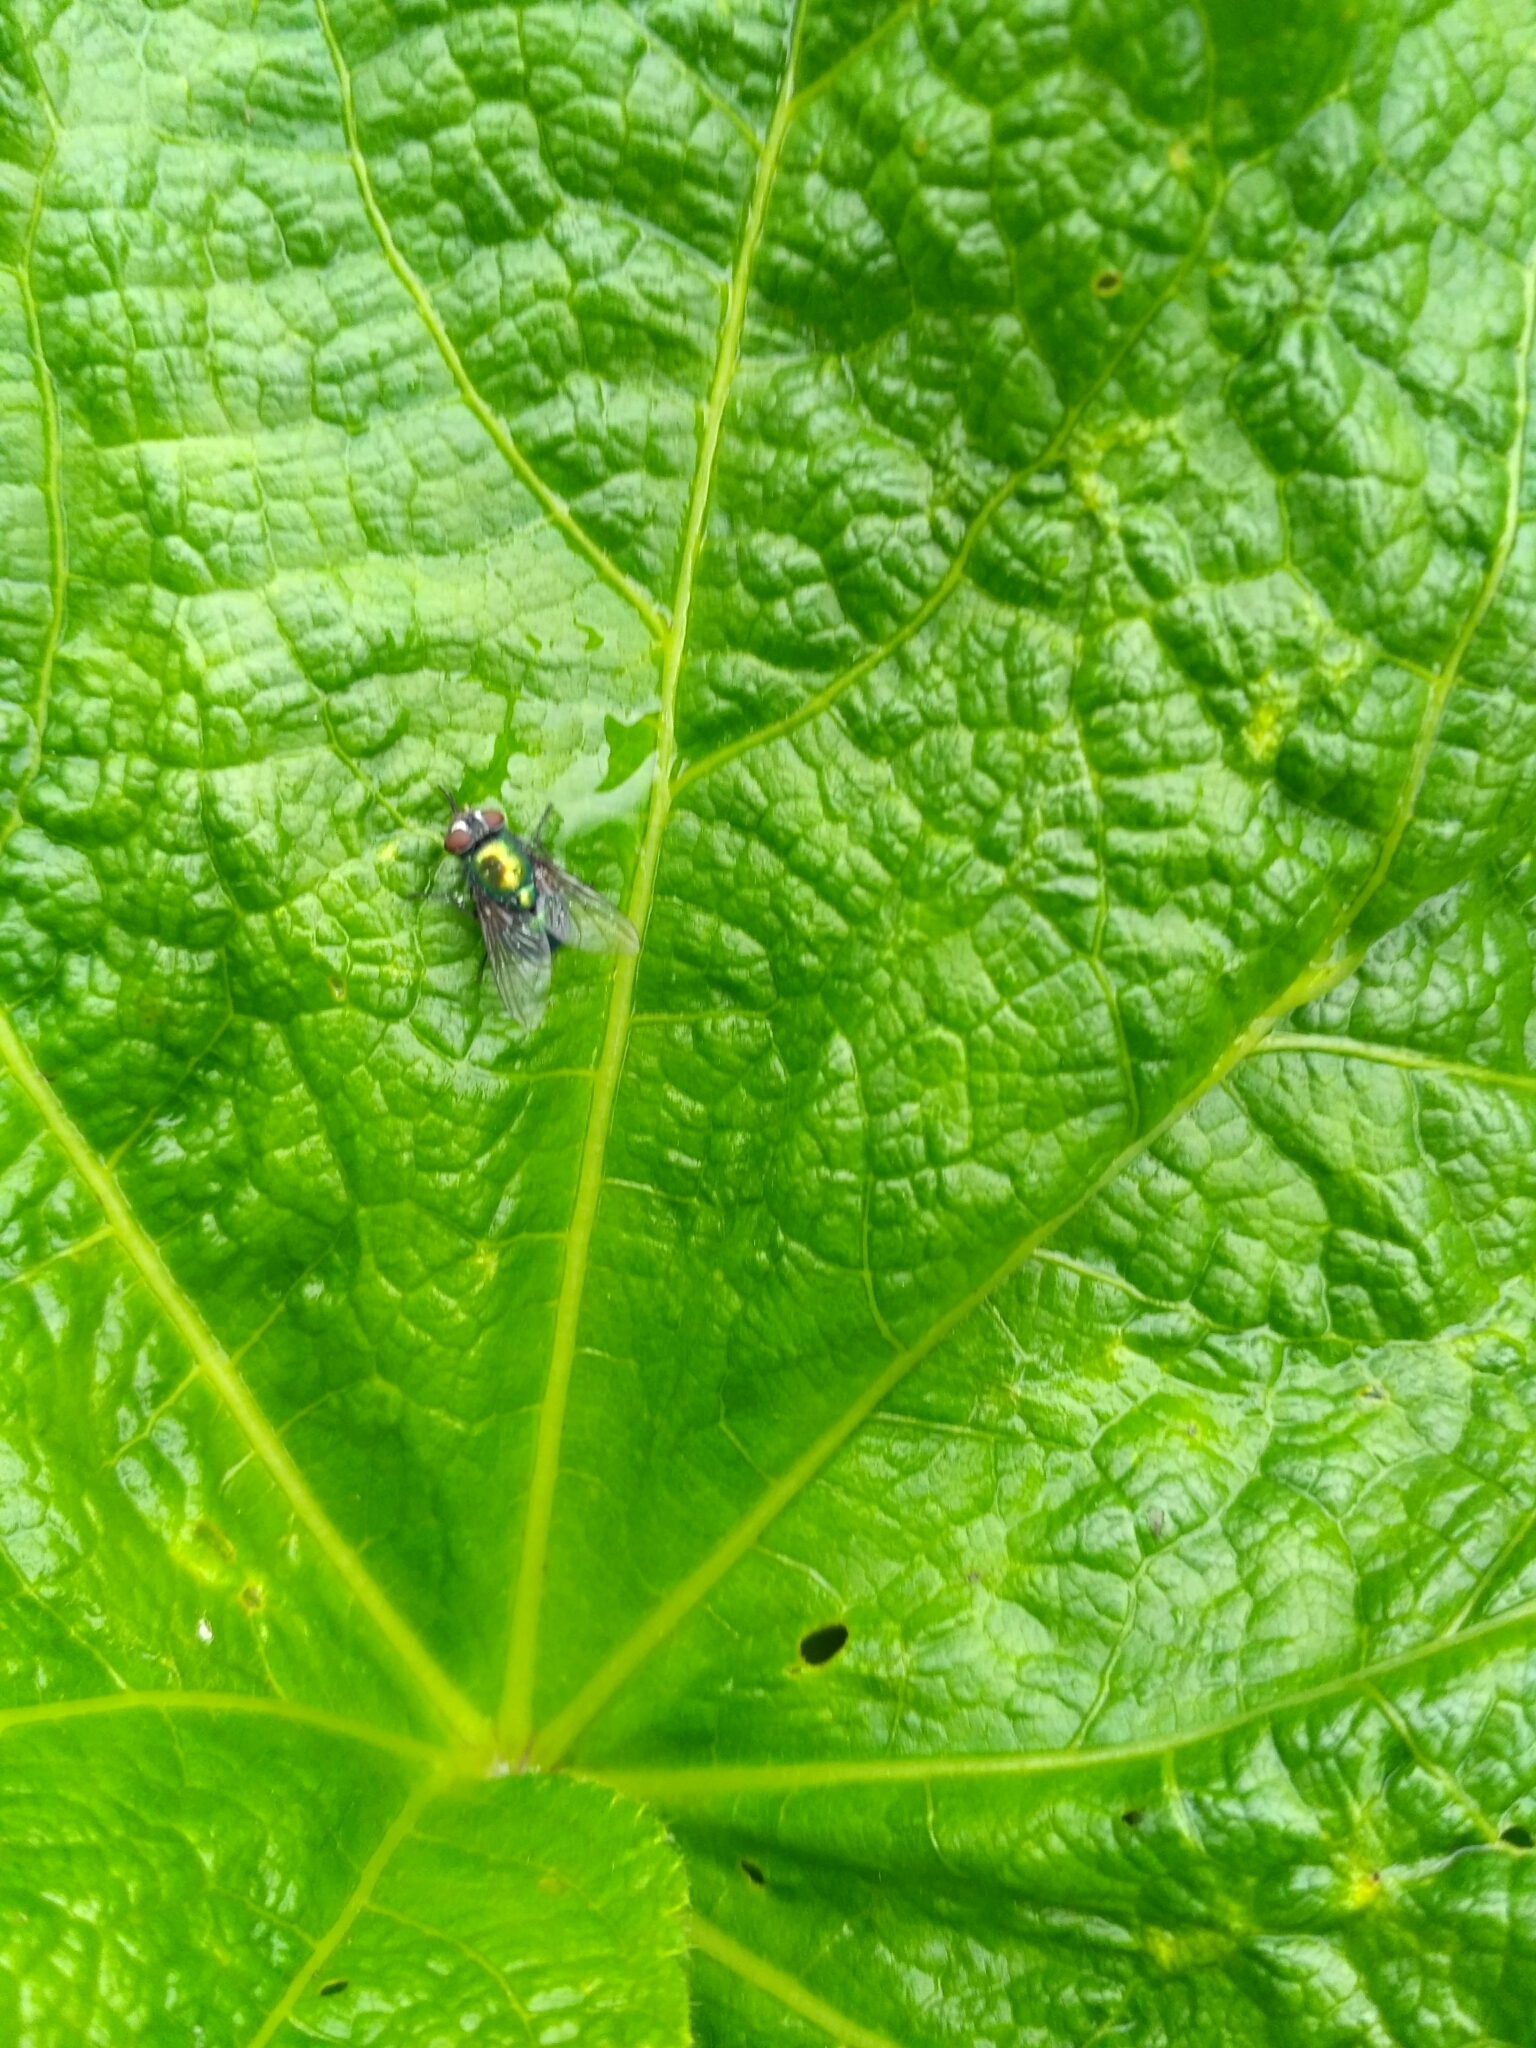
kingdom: Animalia
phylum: Arthropoda
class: Insecta
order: Diptera
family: Calliphoridae
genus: Lucilia
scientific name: Lucilia
